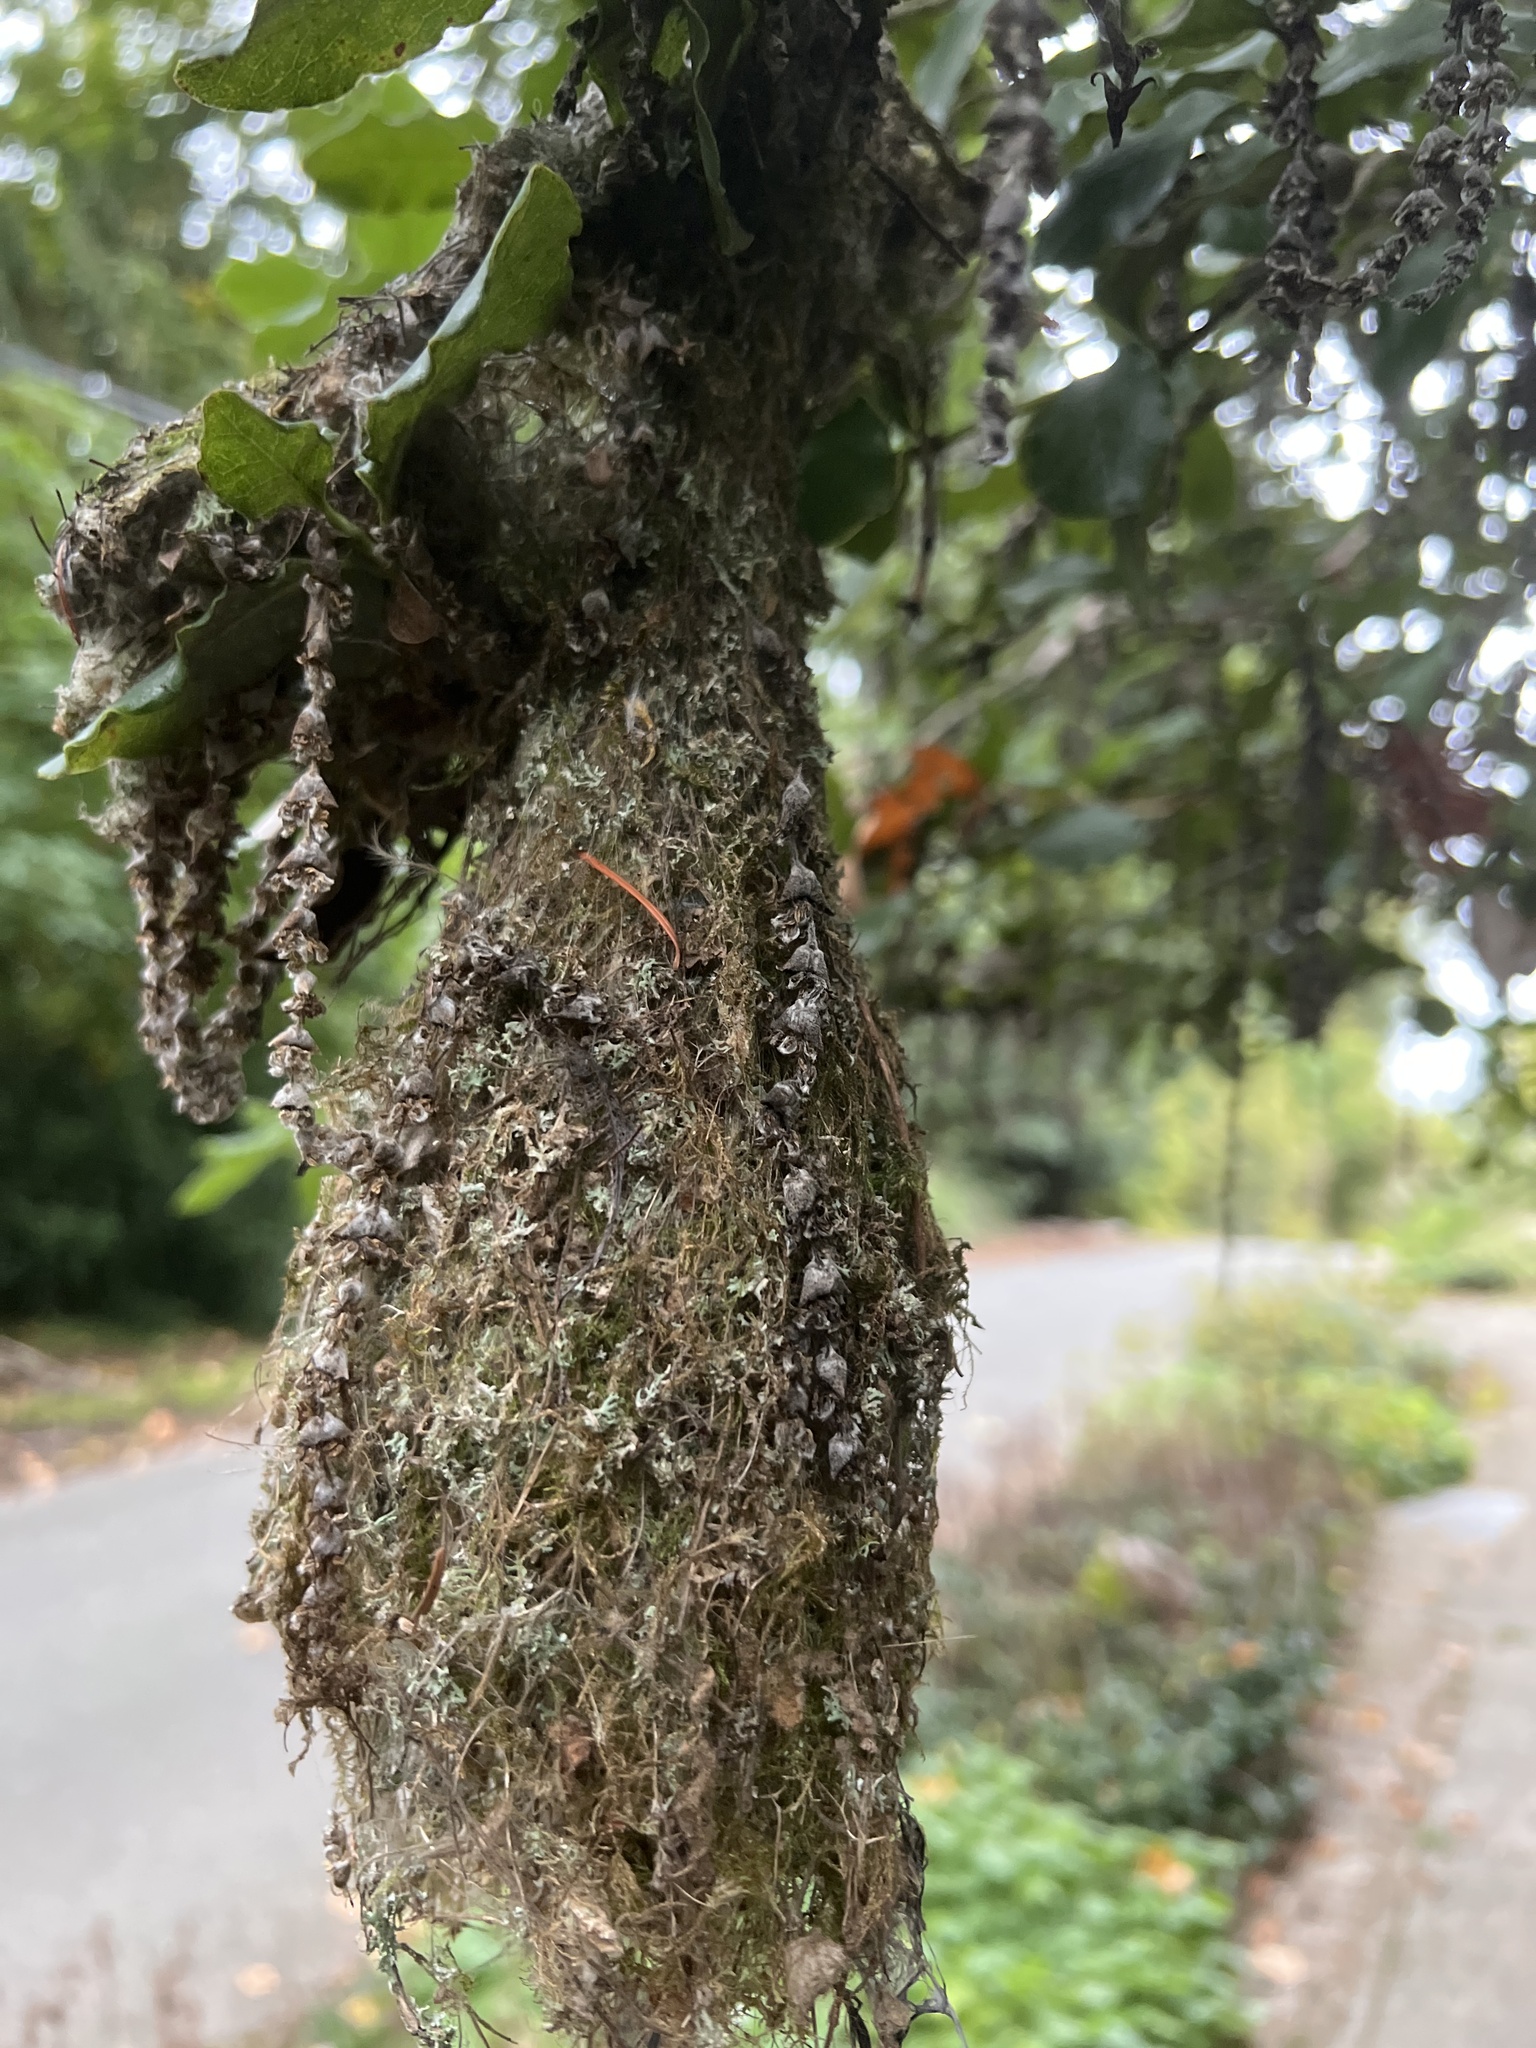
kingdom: Animalia
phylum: Chordata
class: Aves
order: Passeriformes
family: Aegithalidae
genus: Psaltriparus
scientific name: Psaltriparus minimus
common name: American bushtit
